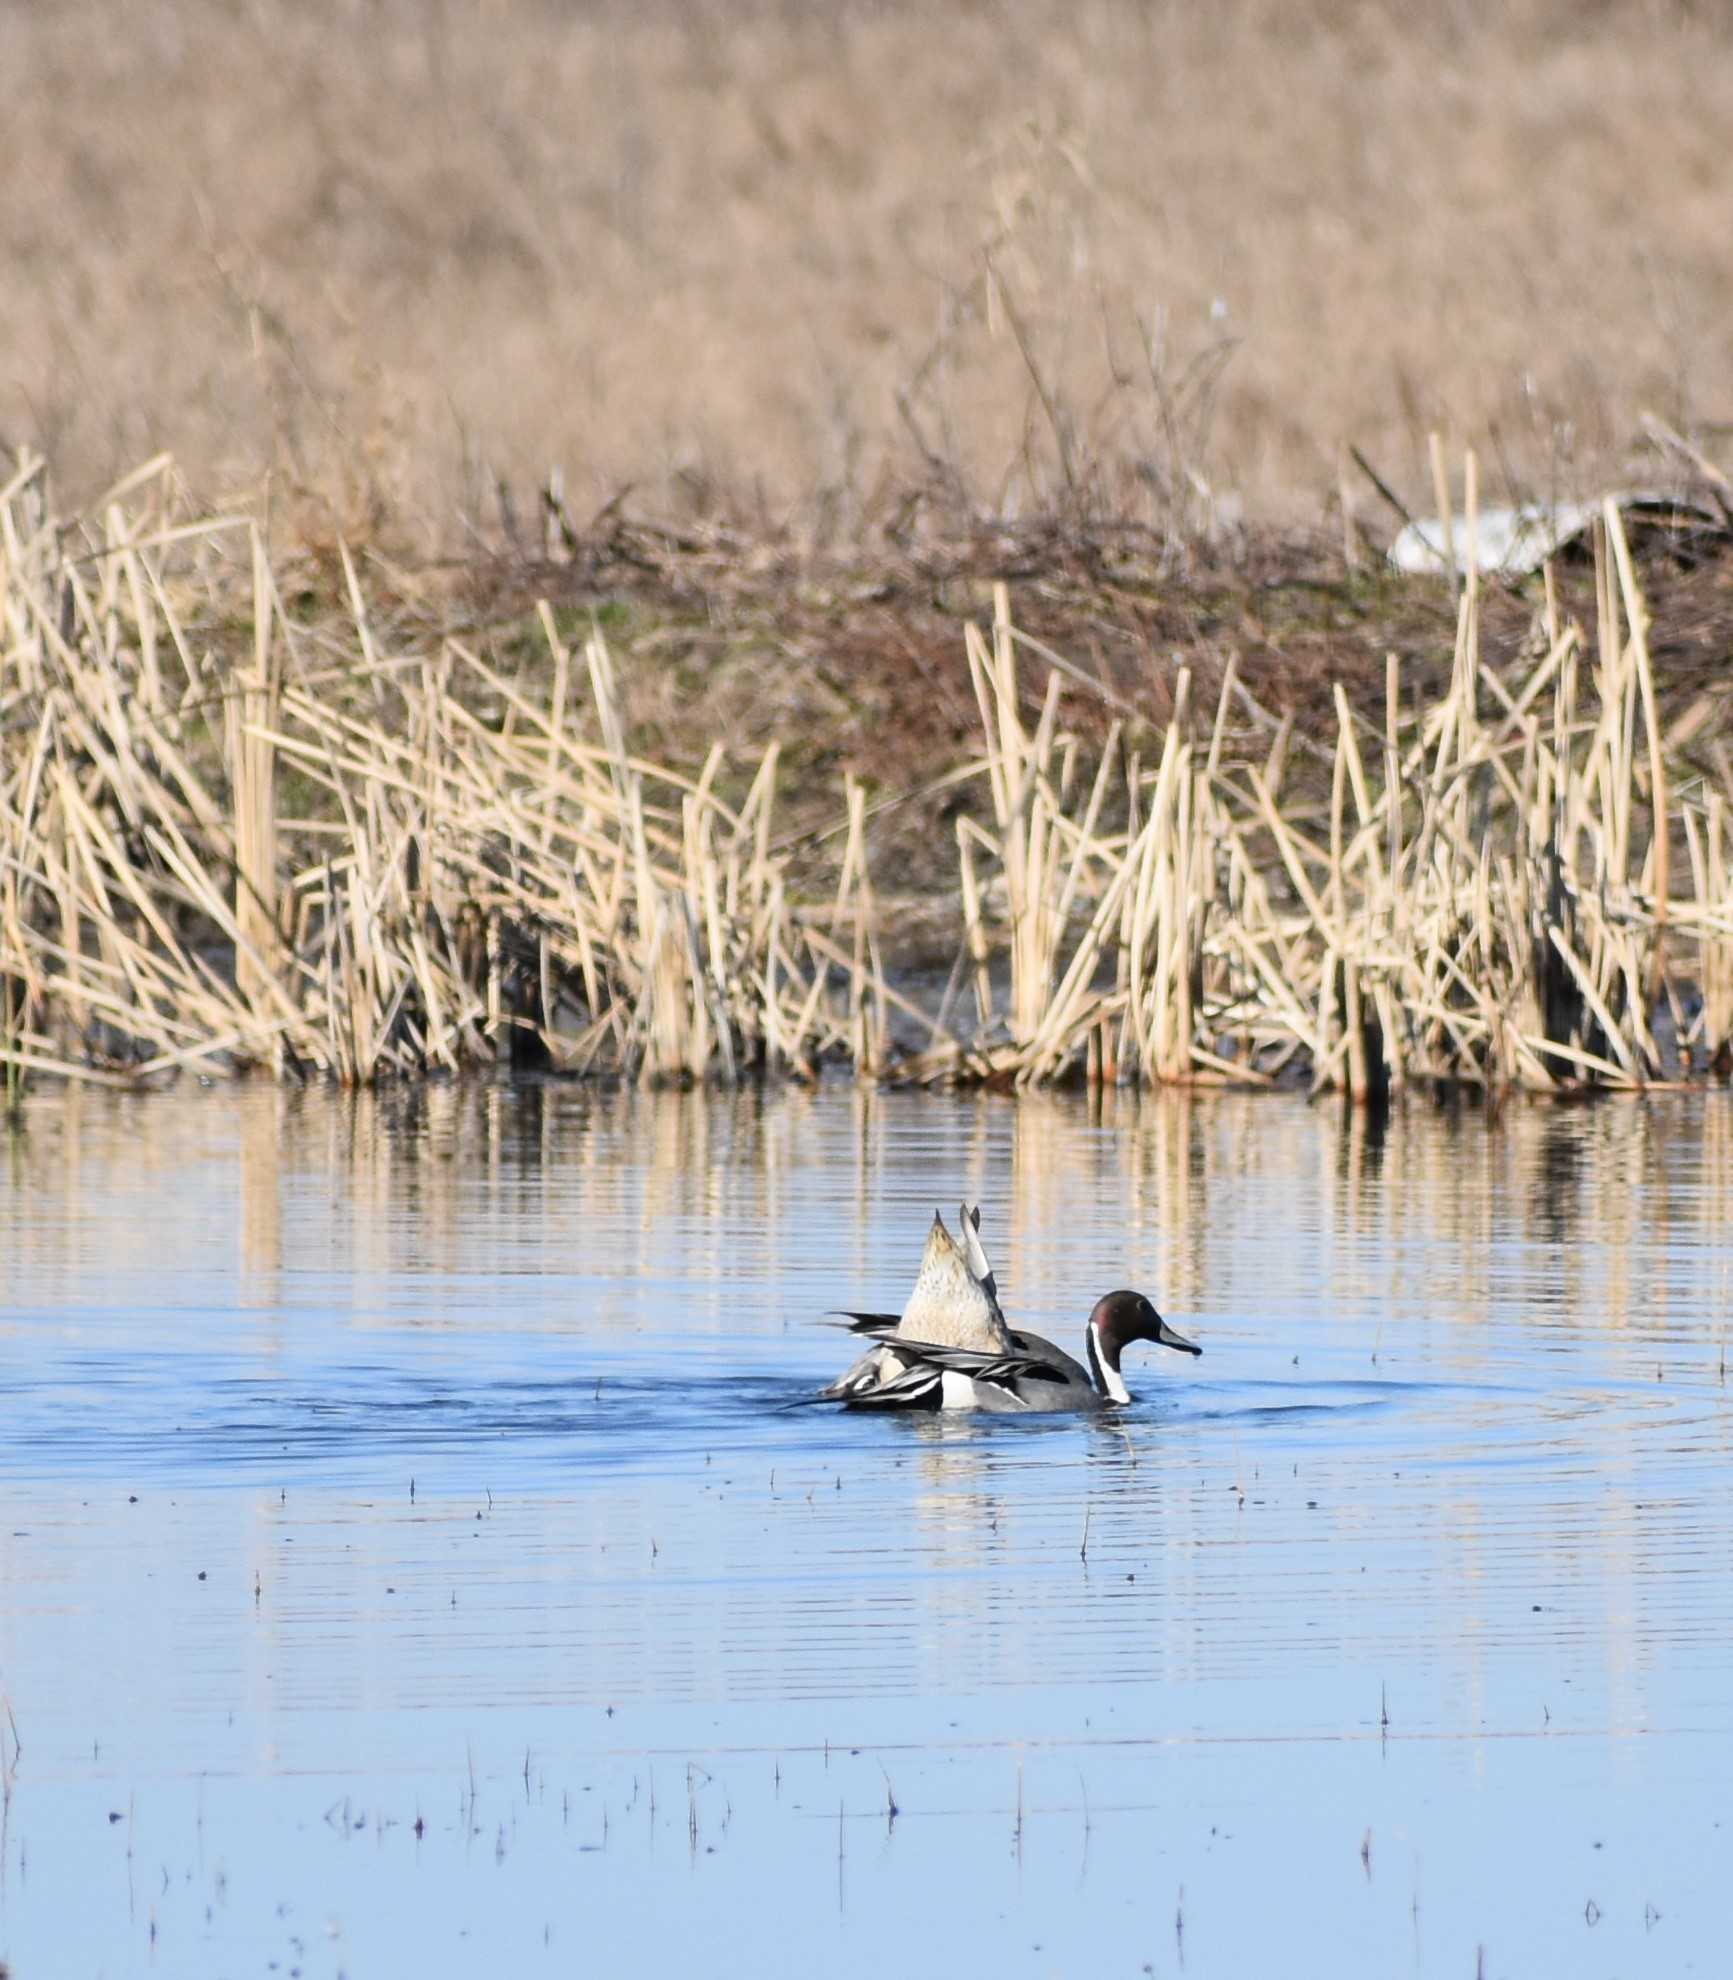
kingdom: Animalia
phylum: Chordata
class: Aves
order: Anseriformes
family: Anatidae
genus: Anas
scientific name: Anas acuta
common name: Northern pintail
